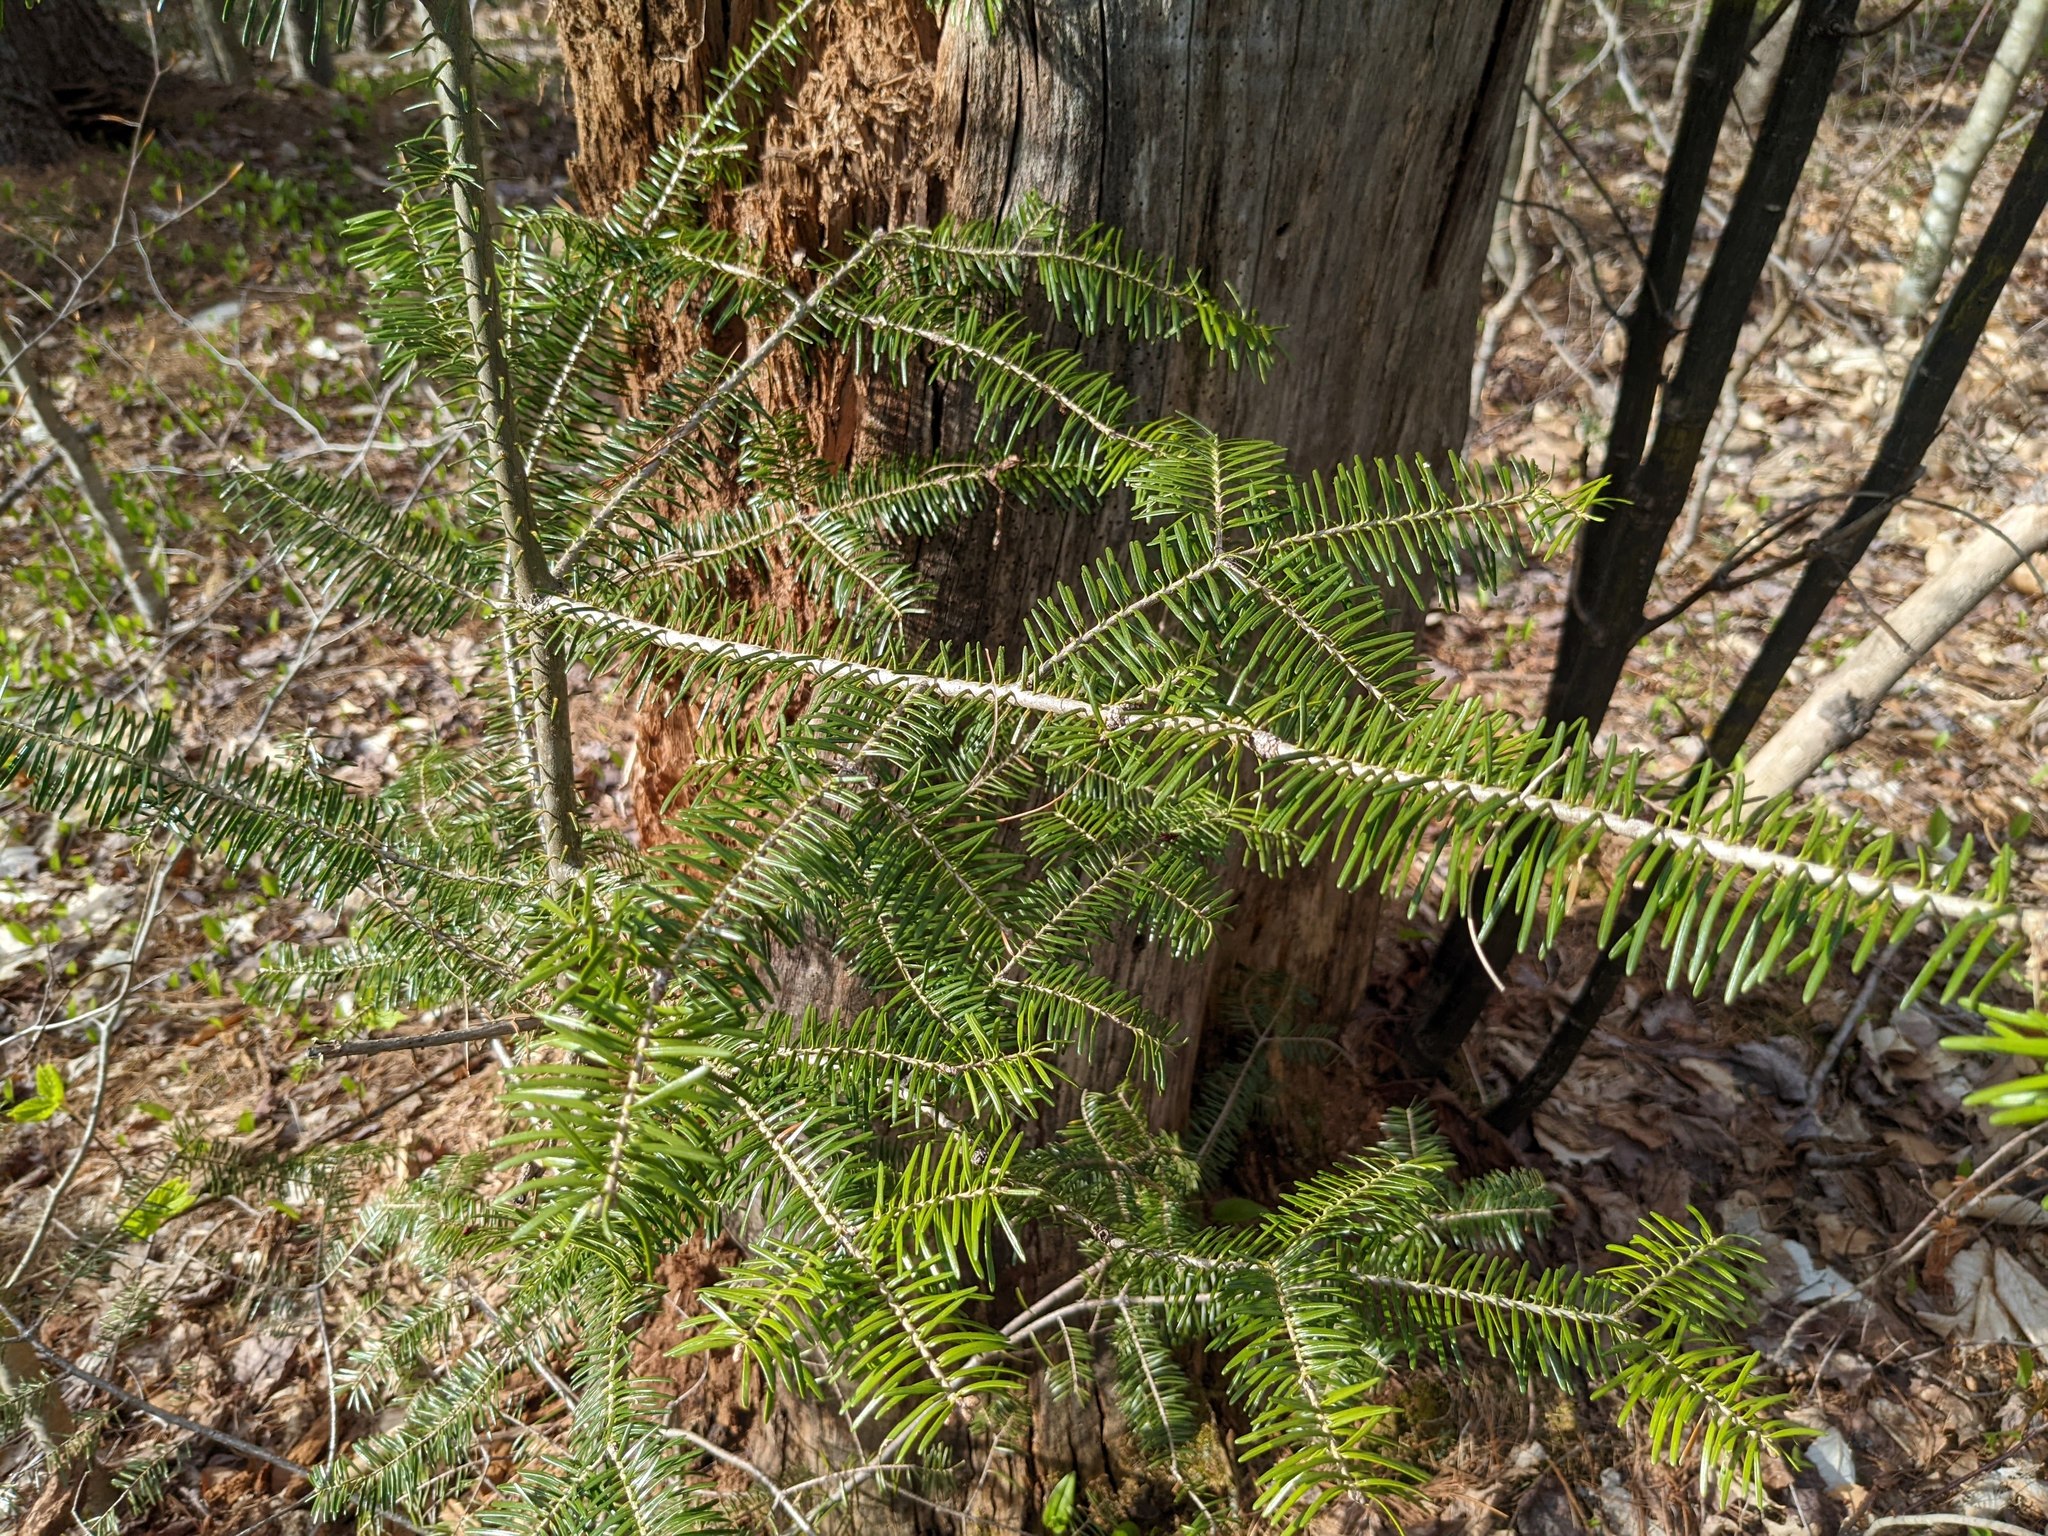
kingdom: Plantae
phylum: Tracheophyta
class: Pinopsida
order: Pinales
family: Pinaceae
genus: Abies
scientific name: Abies balsamea
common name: Balsam fir
